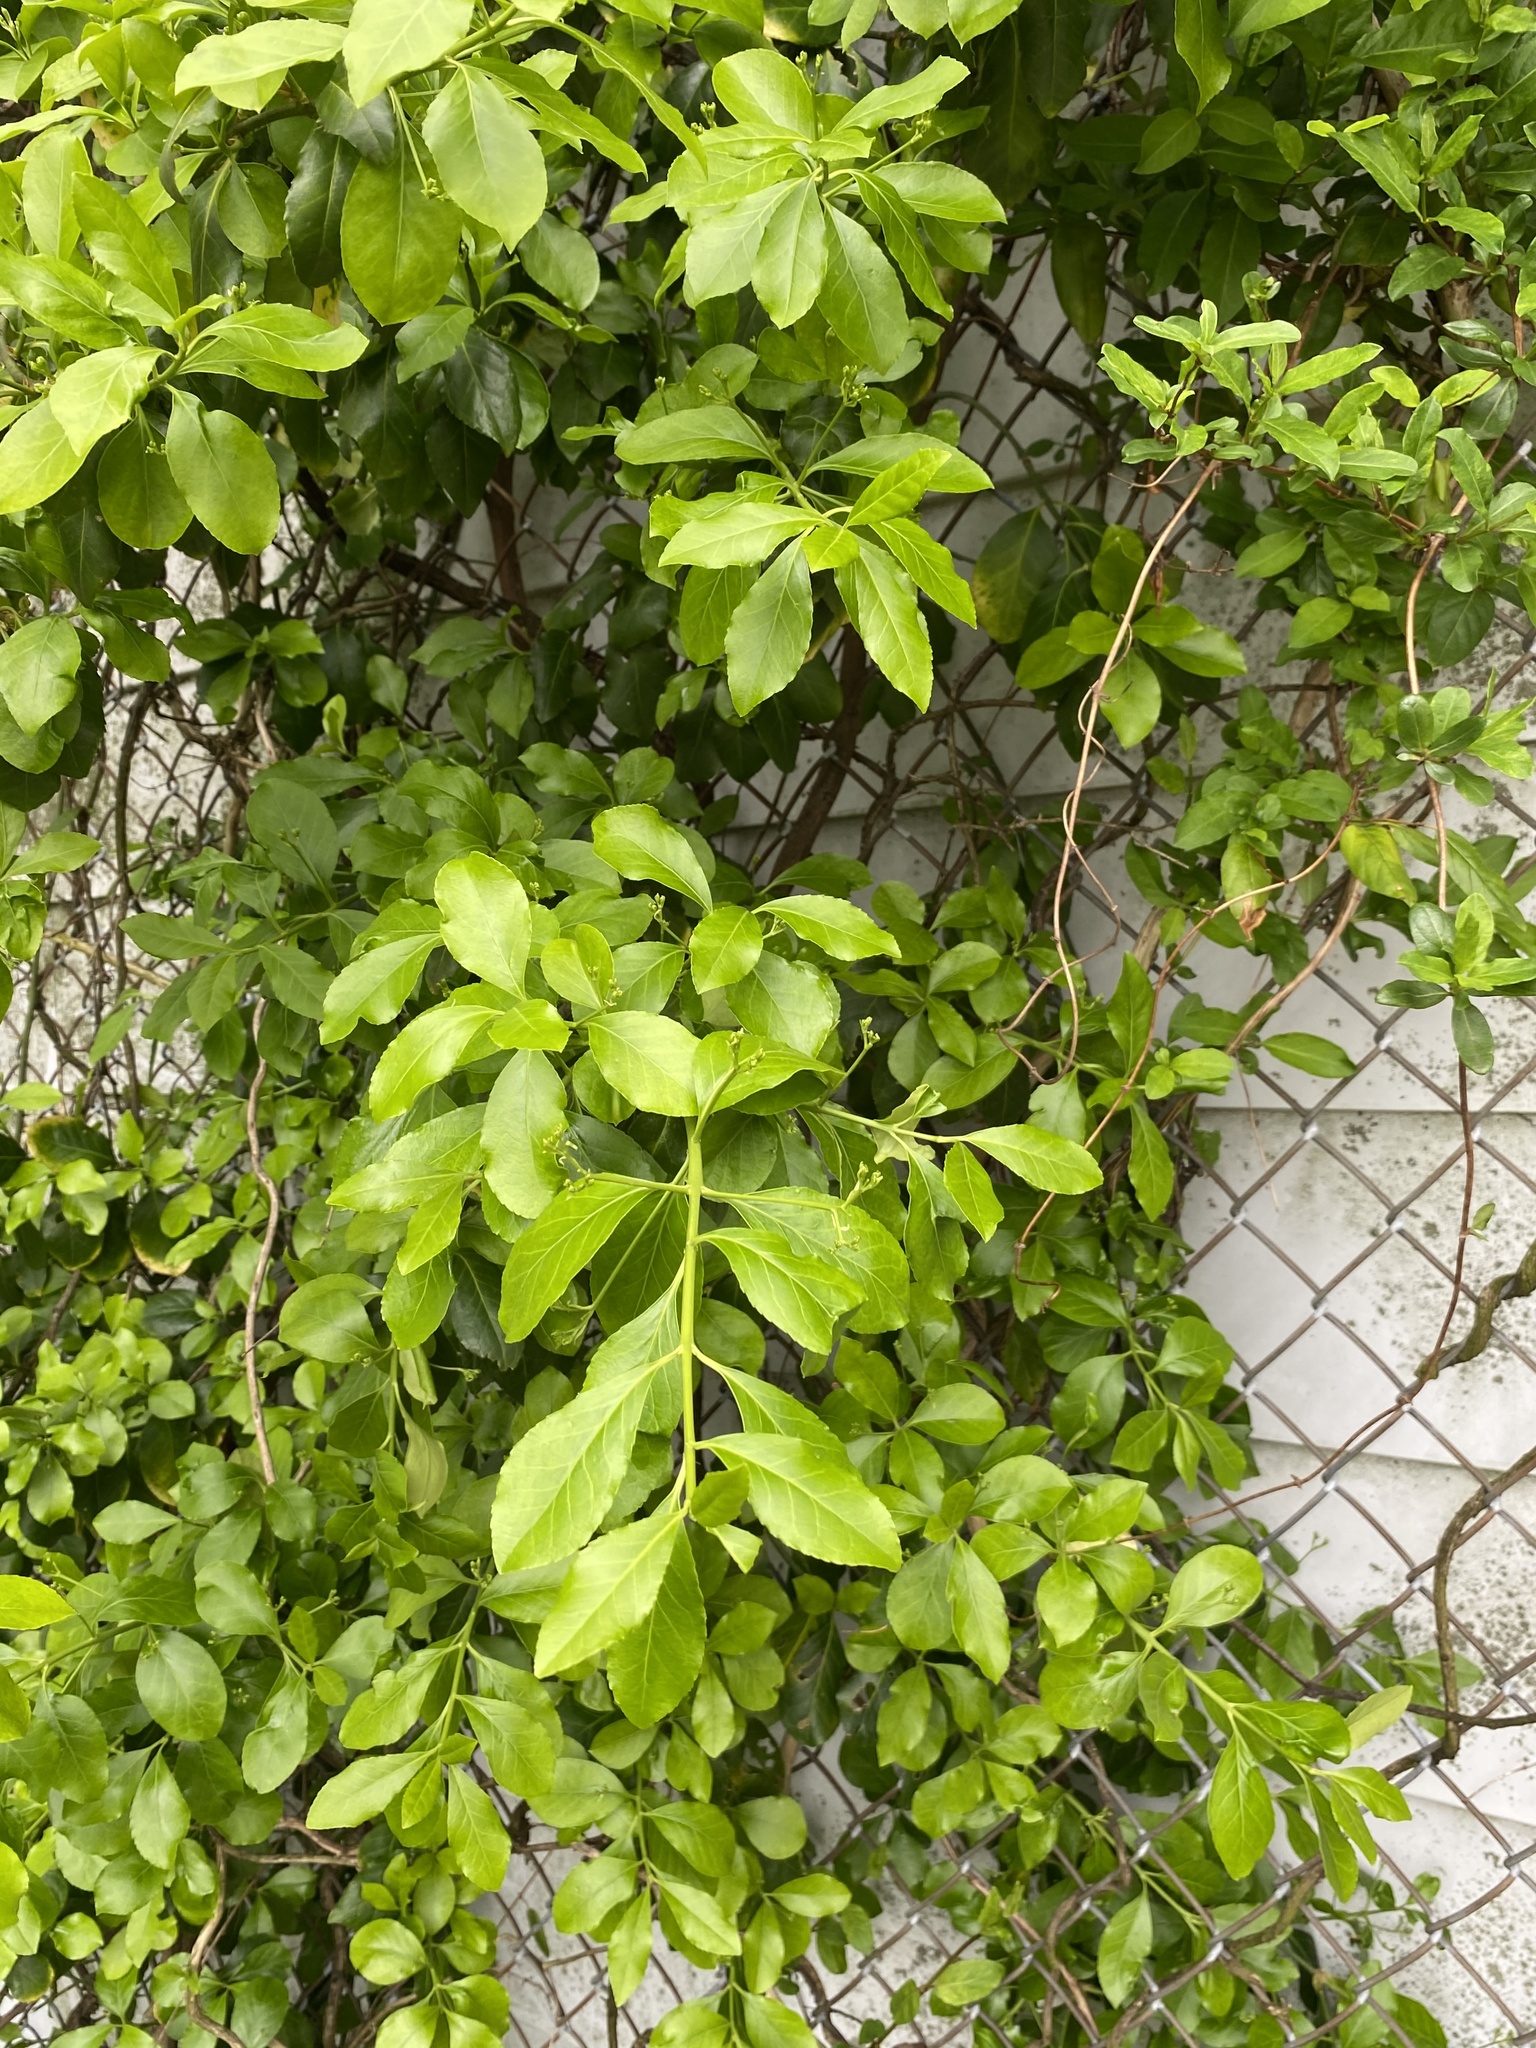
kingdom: Plantae
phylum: Tracheophyta
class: Magnoliopsida
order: Celastrales
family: Celastraceae
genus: Euonymus
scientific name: Euonymus fortunei
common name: Climbing euonymus
